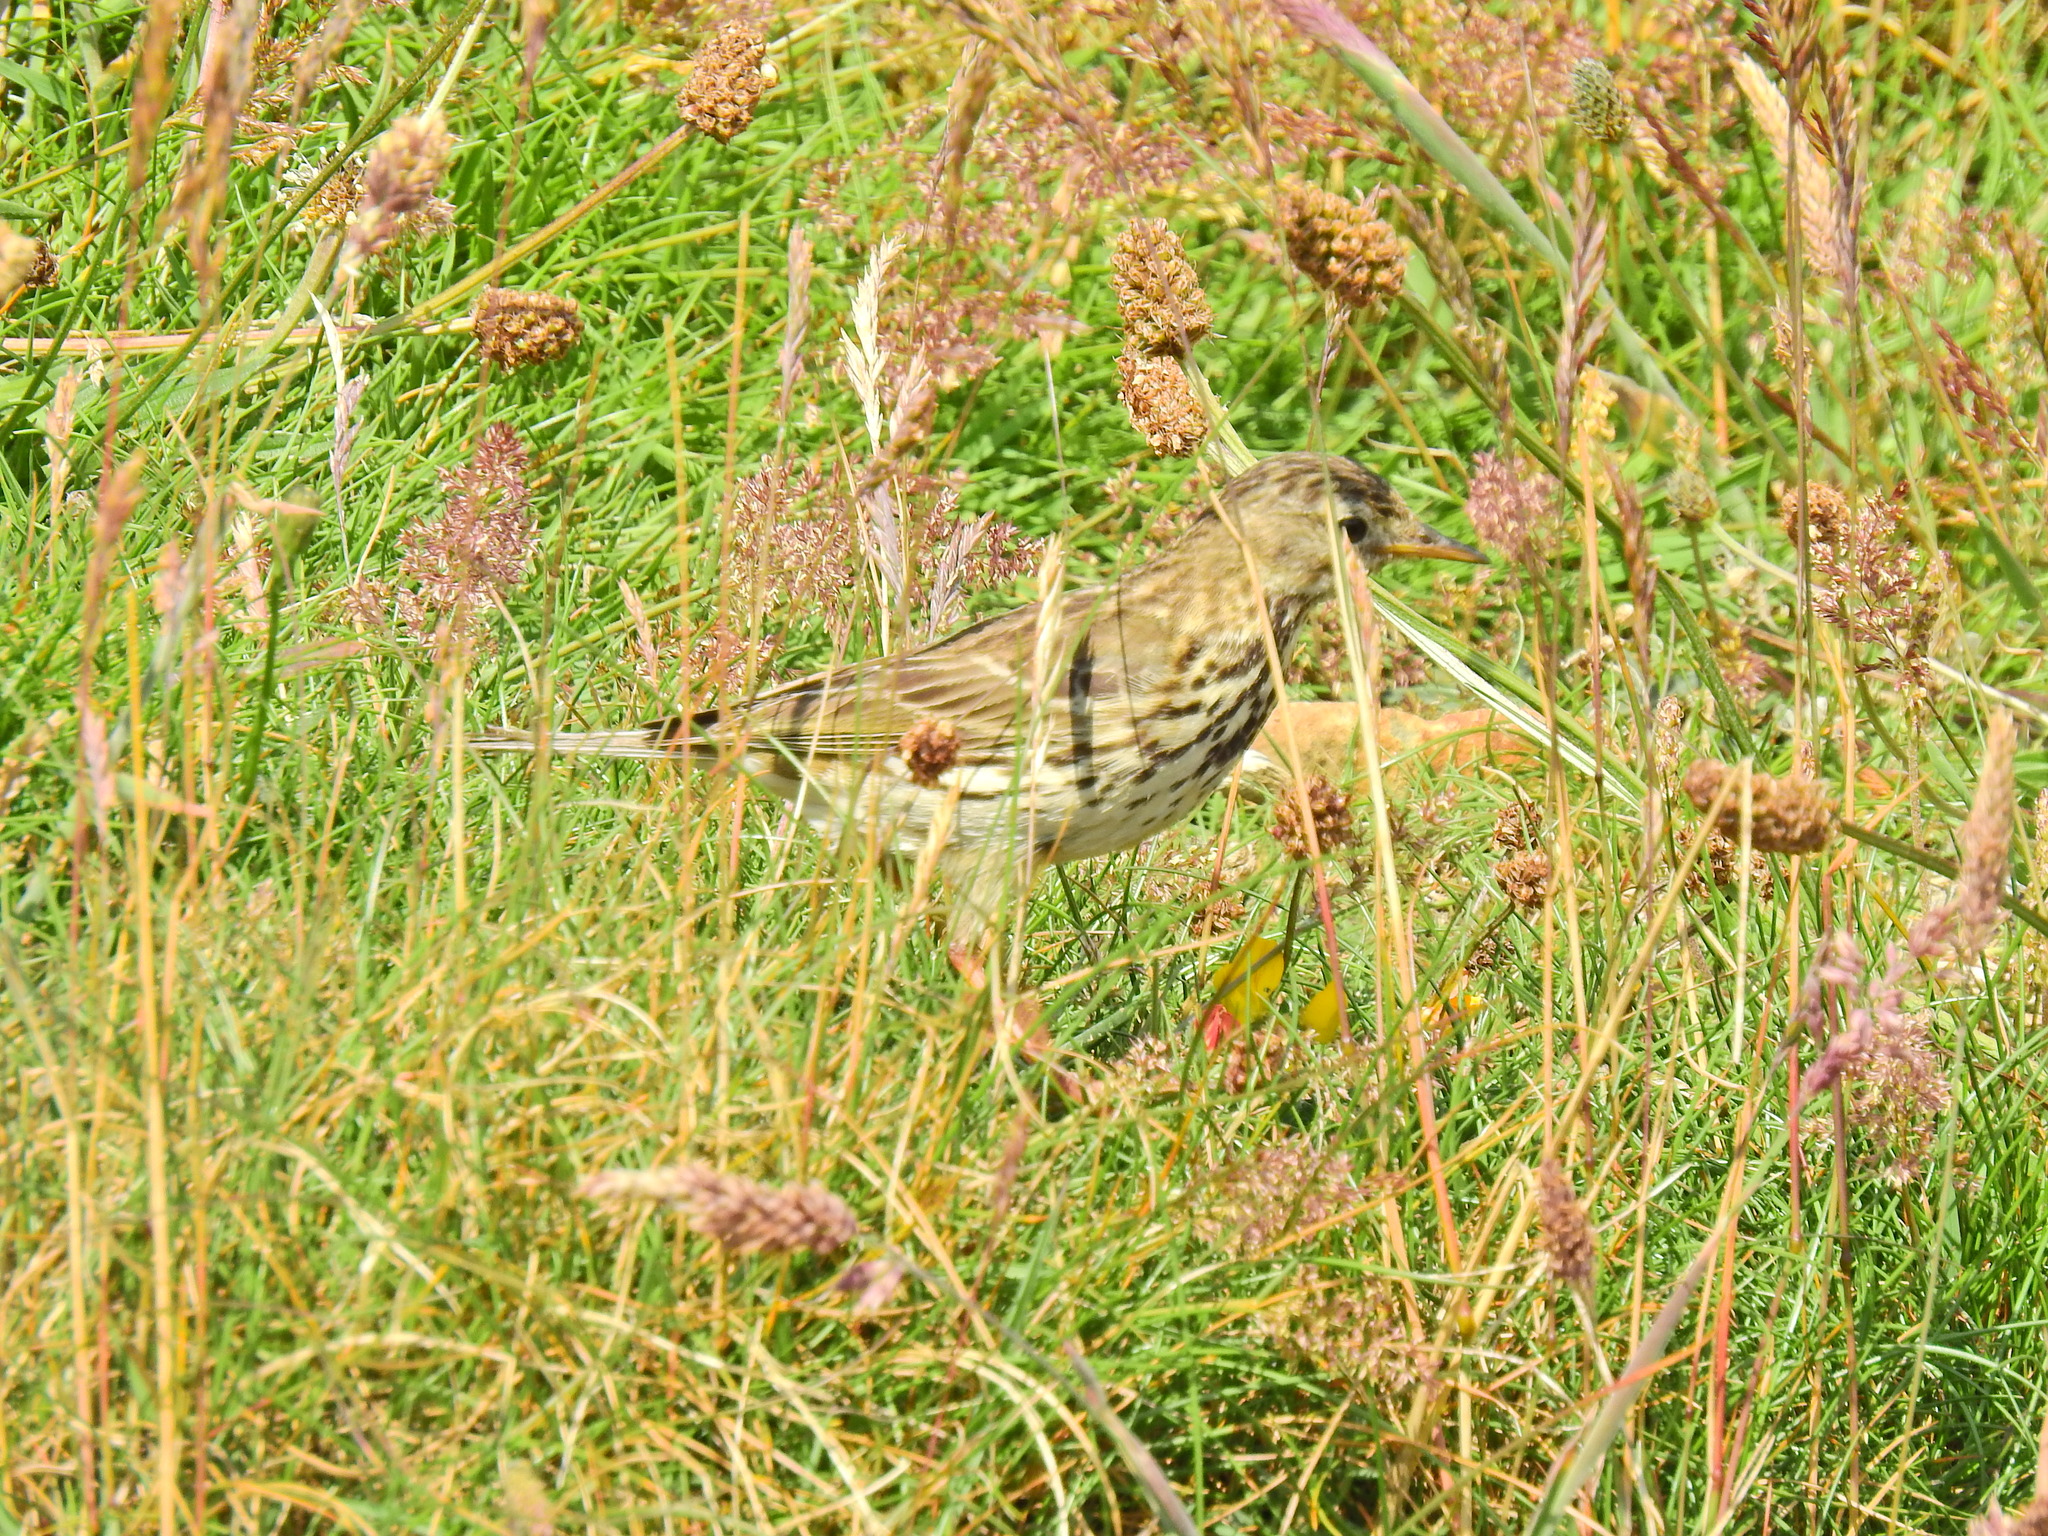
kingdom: Animalia
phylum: Chordata
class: Aves
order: Passeriformes
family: Motacillidae
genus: Anthus
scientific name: Anthus pratensis
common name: Meadow pipit
